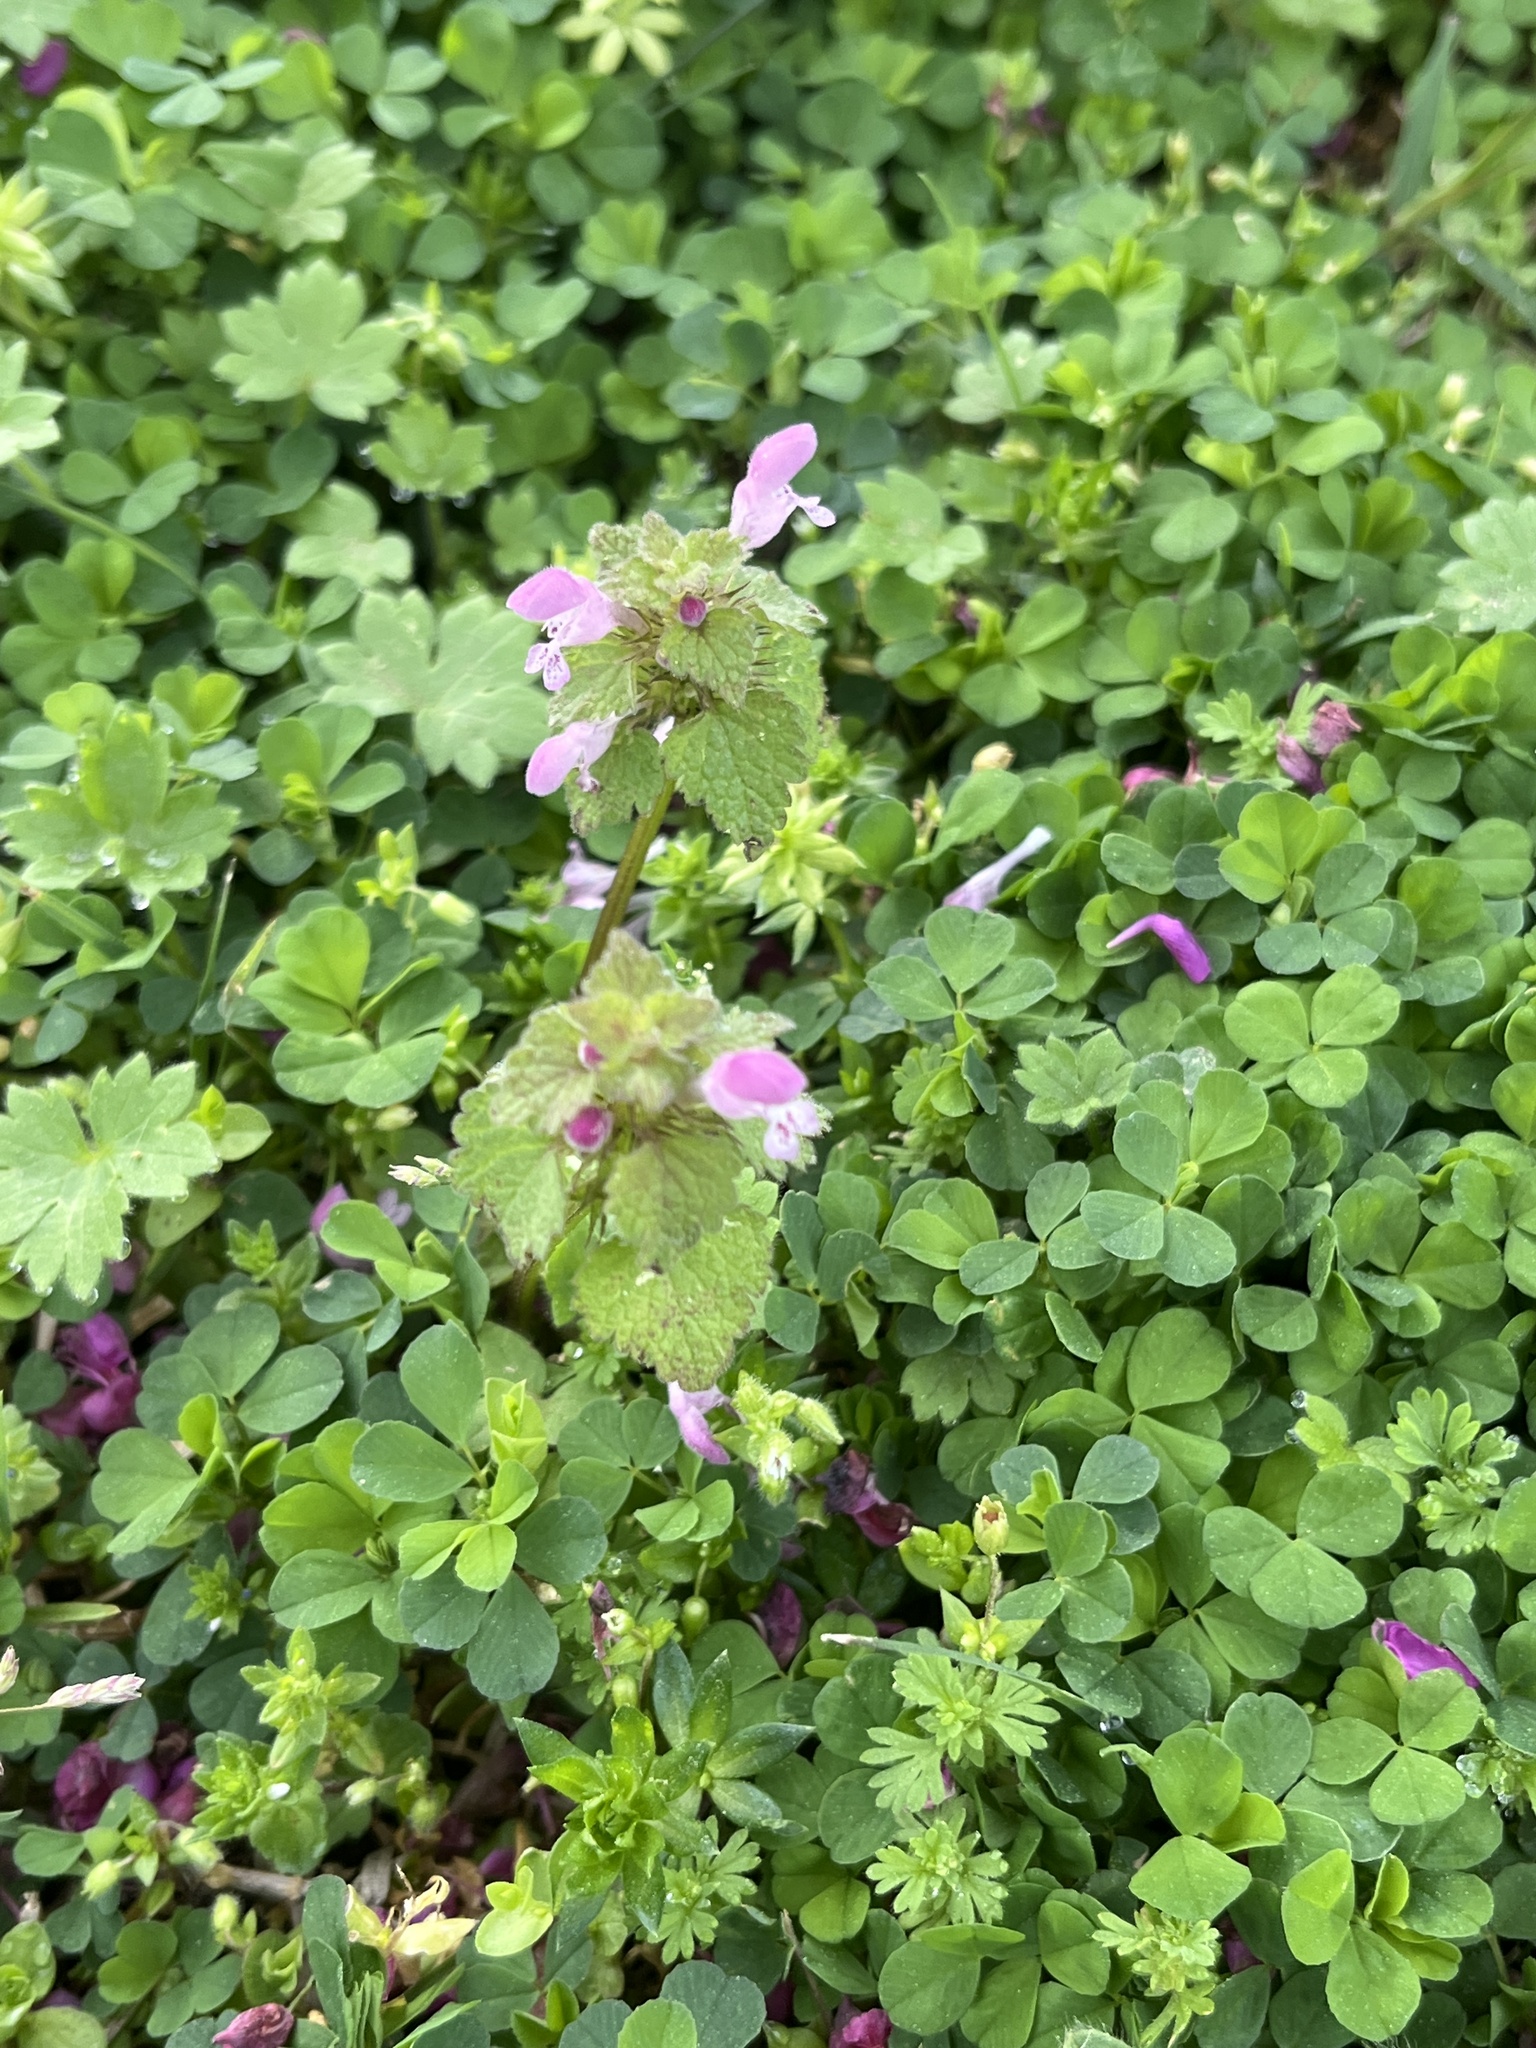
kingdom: Plantae
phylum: Tracheophyta
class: Magnoliopsida
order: Lamiales
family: Lamiaceae
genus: Lamium
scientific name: Lamium purpureum
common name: Red dead-nettle
